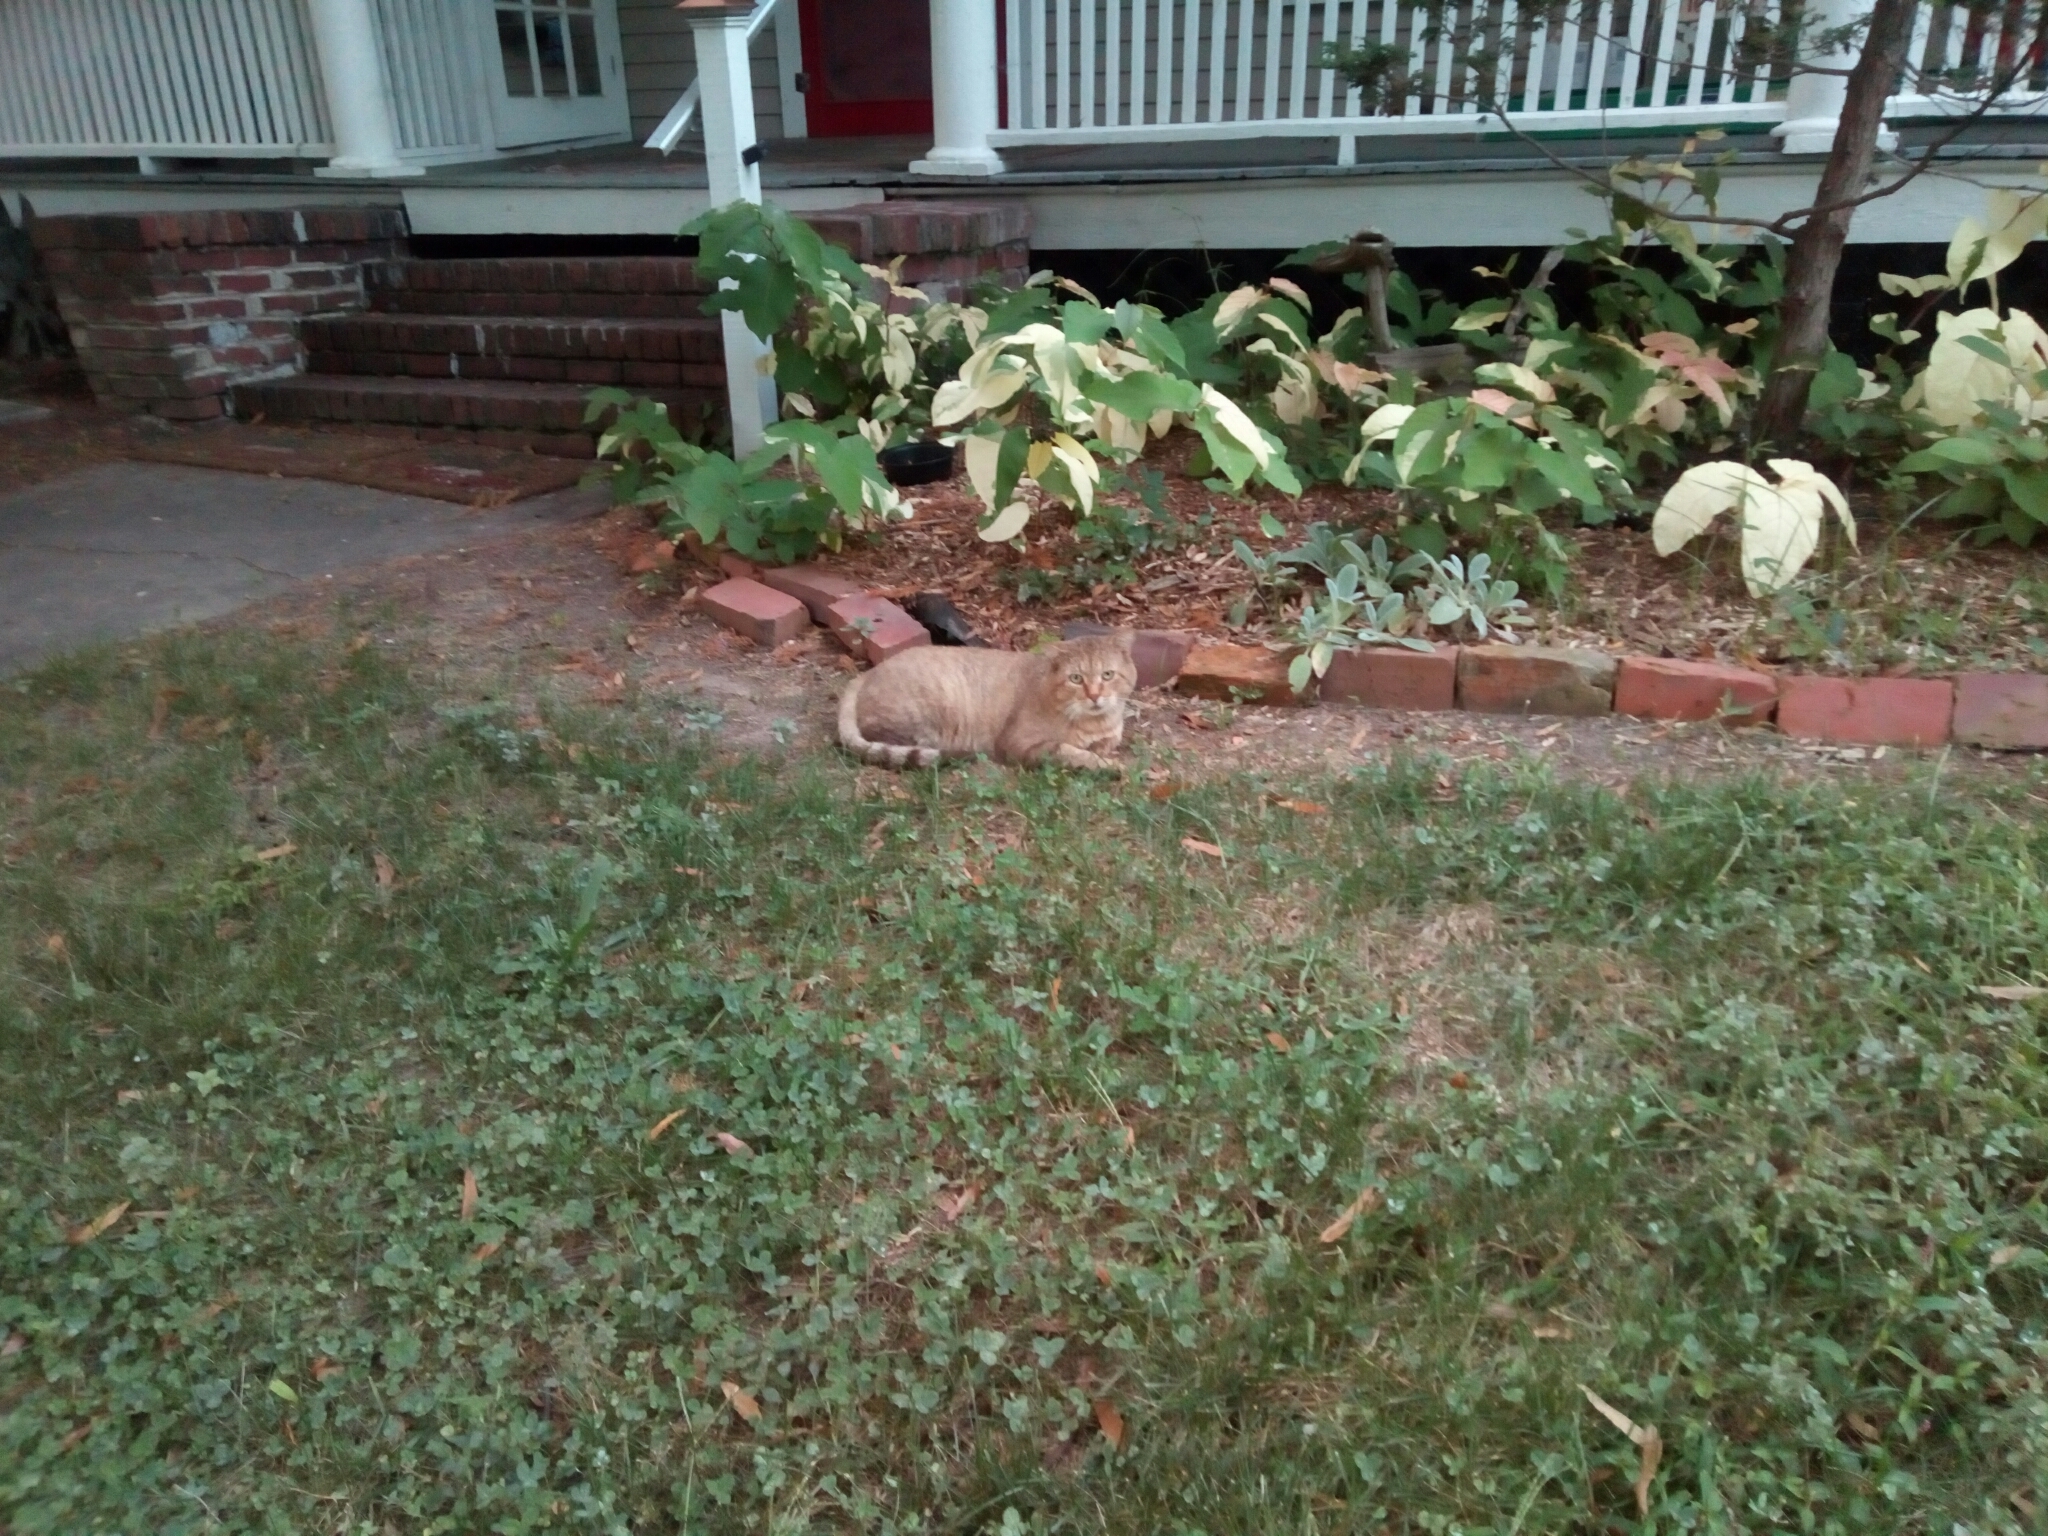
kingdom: Animalia
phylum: Chordata
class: Mammalia
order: Carnivora
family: Felidae
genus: Felis
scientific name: Felis catus
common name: Domestic cat
